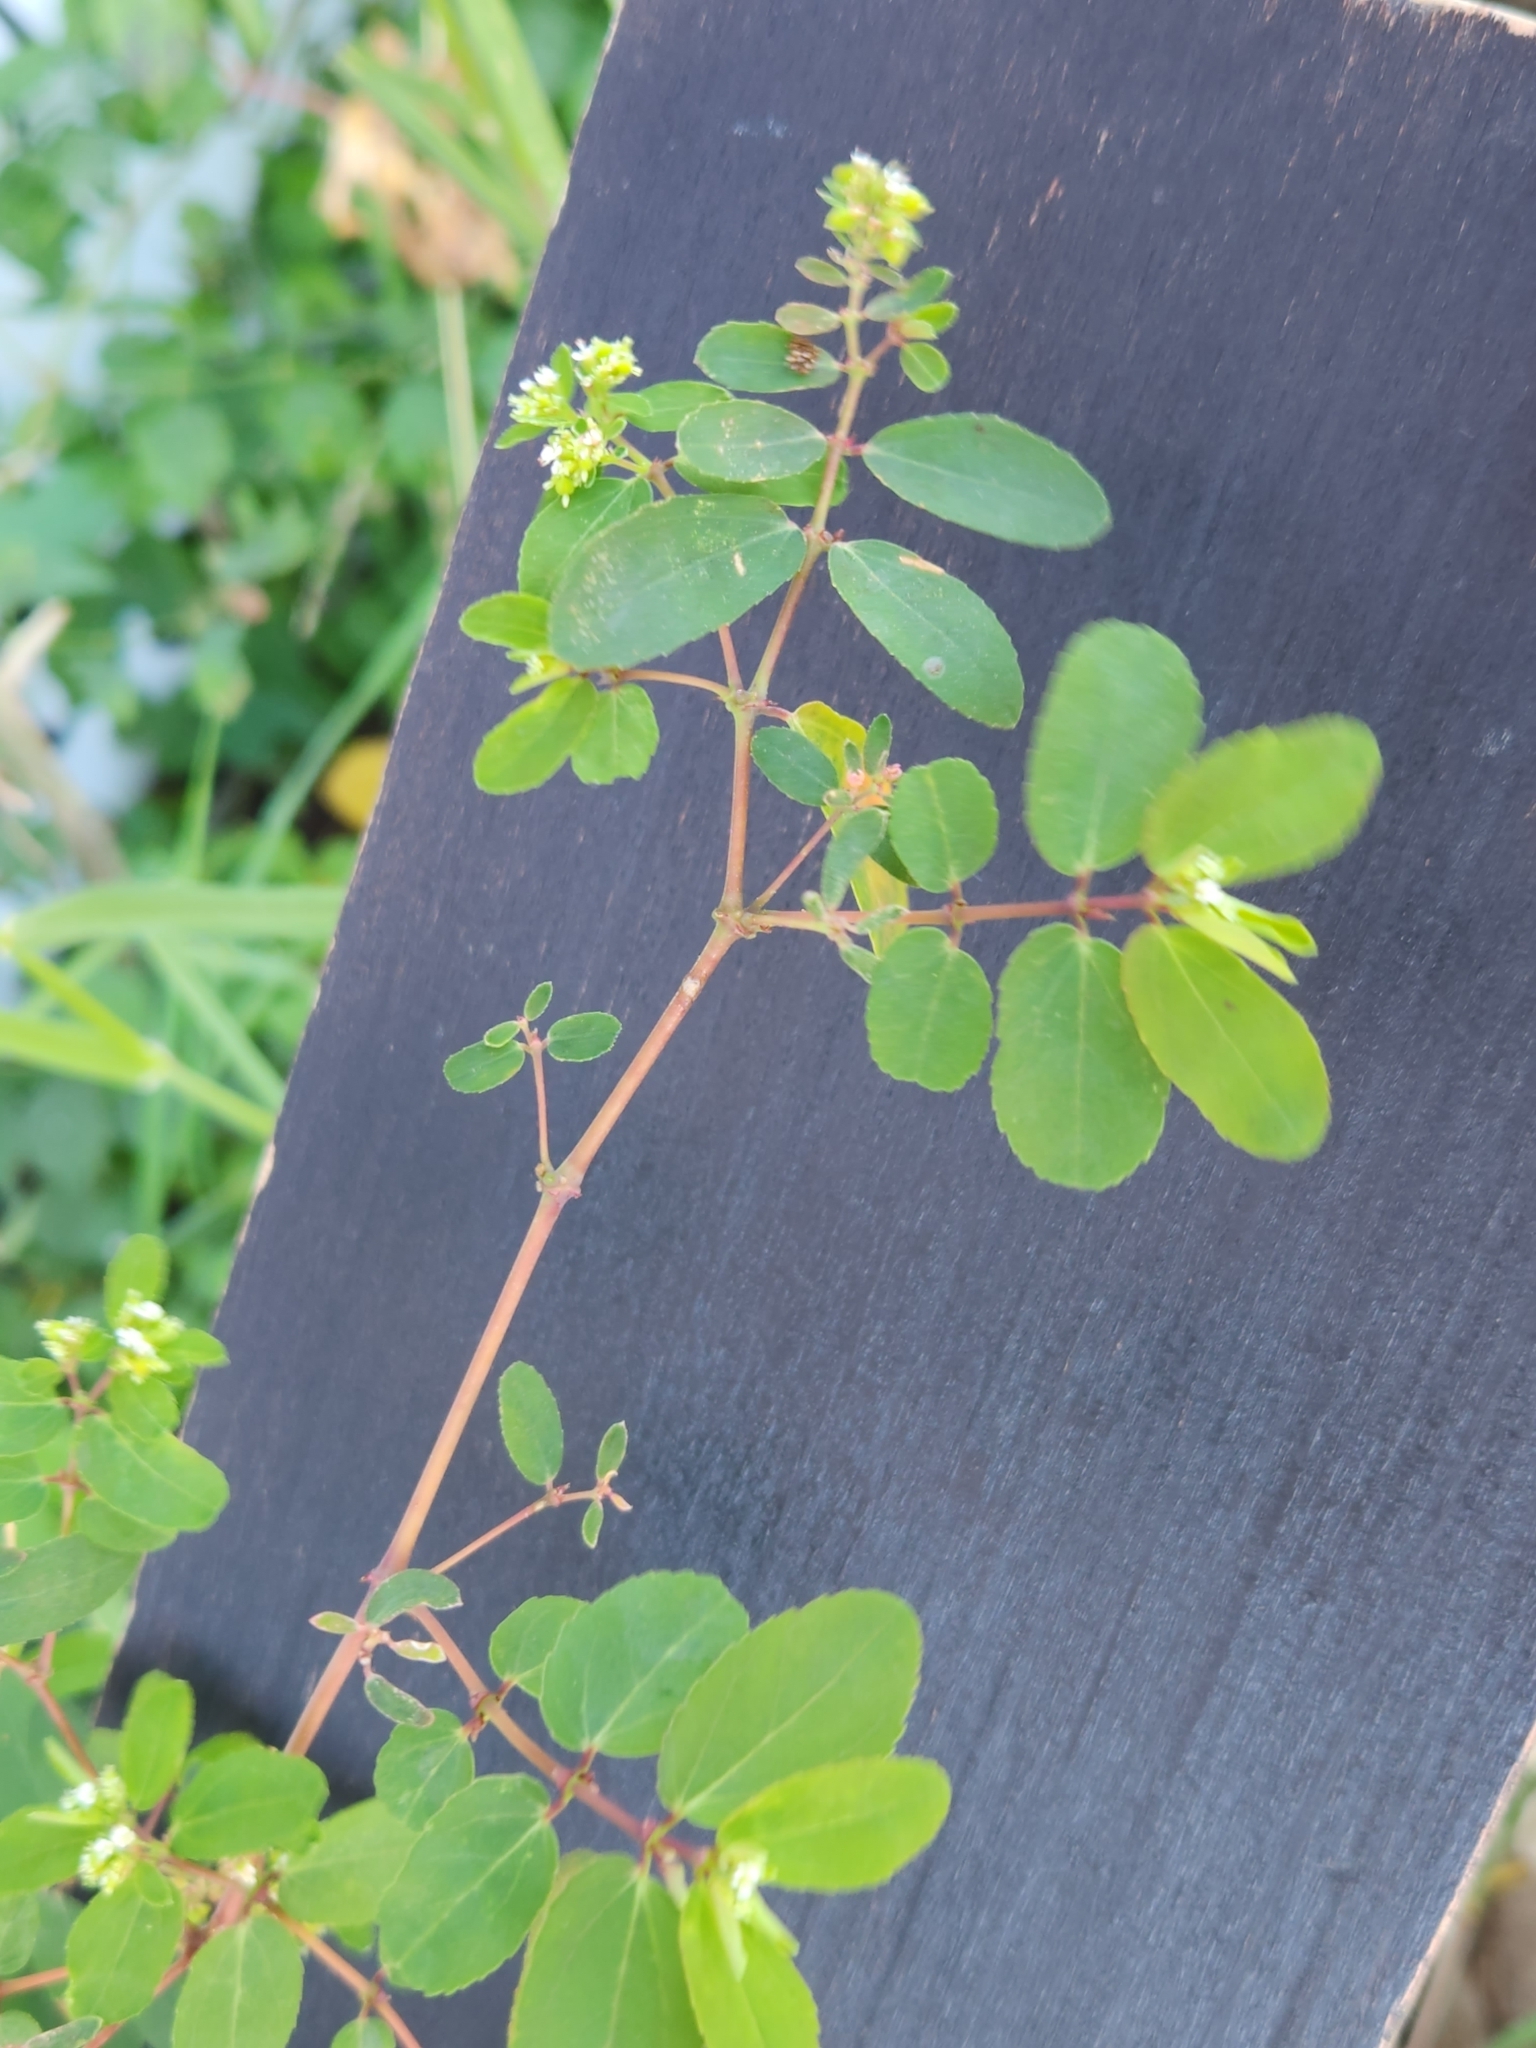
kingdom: Plantae
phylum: Tracheophyta
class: Magnoliopsida
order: Malpighiales
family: Euphorbiaceae
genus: Euphorbia
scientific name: Euphorbia hypericifolia
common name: Graceful sandmat
